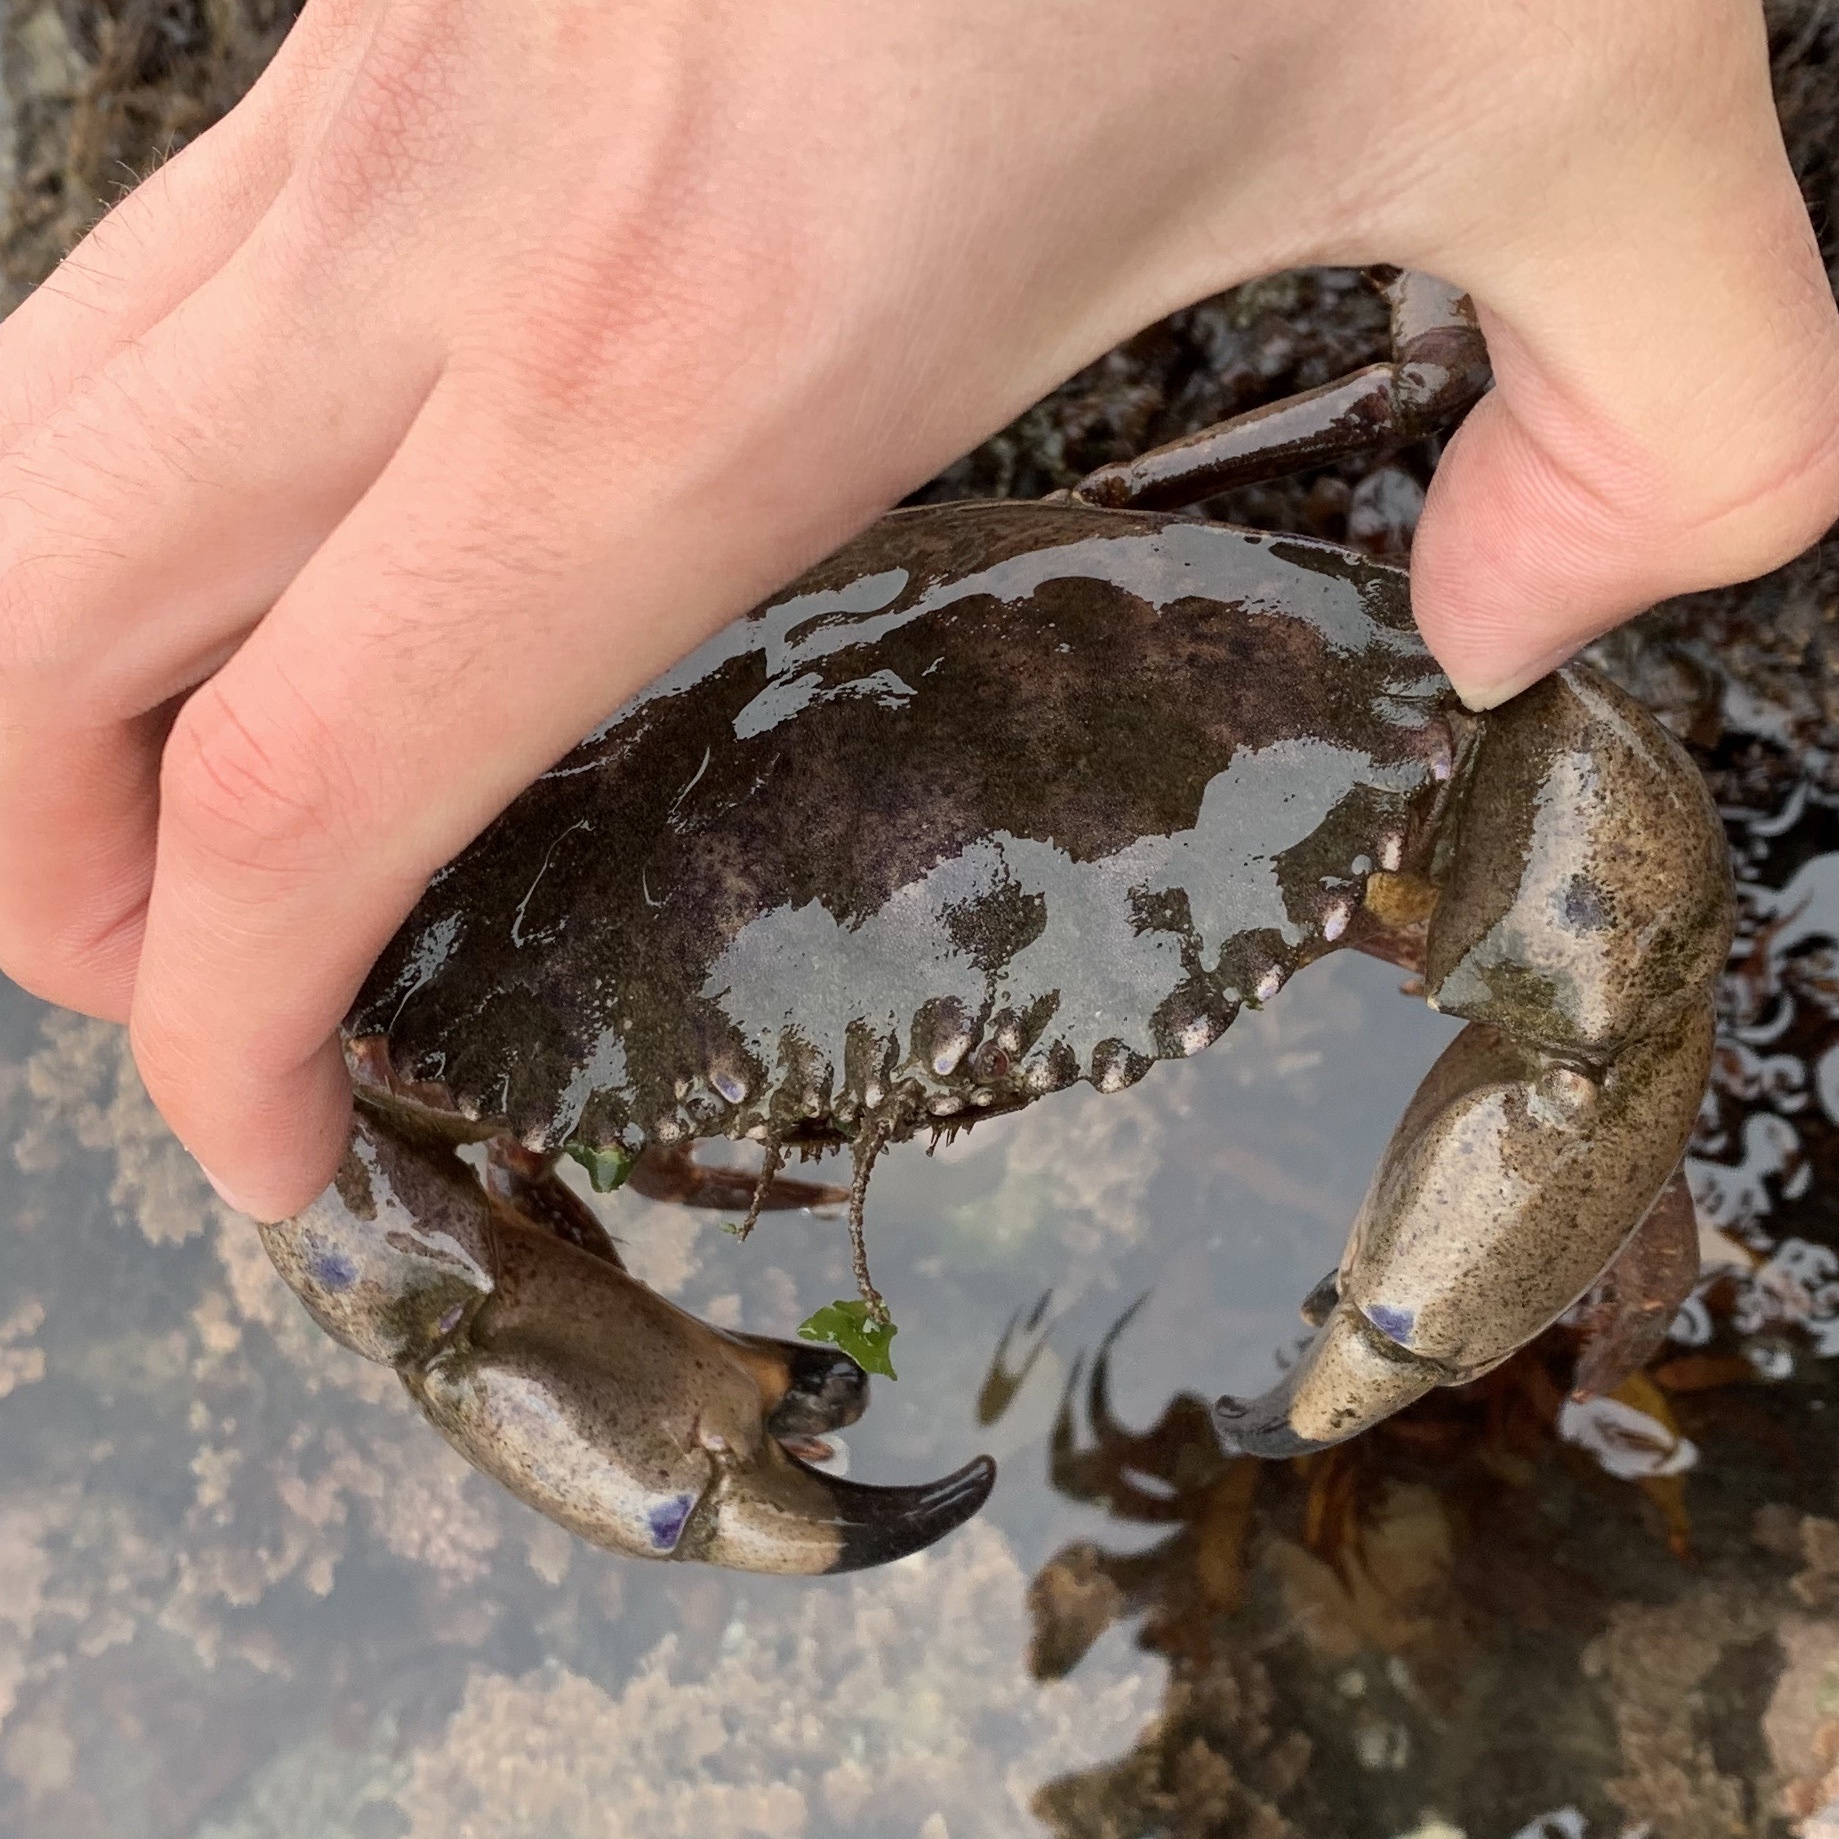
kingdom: Animalia
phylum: Arthropoda
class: Malacostraca
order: Decapoda
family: Cancridae
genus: Romaleon
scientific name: Romaleon antennarium
